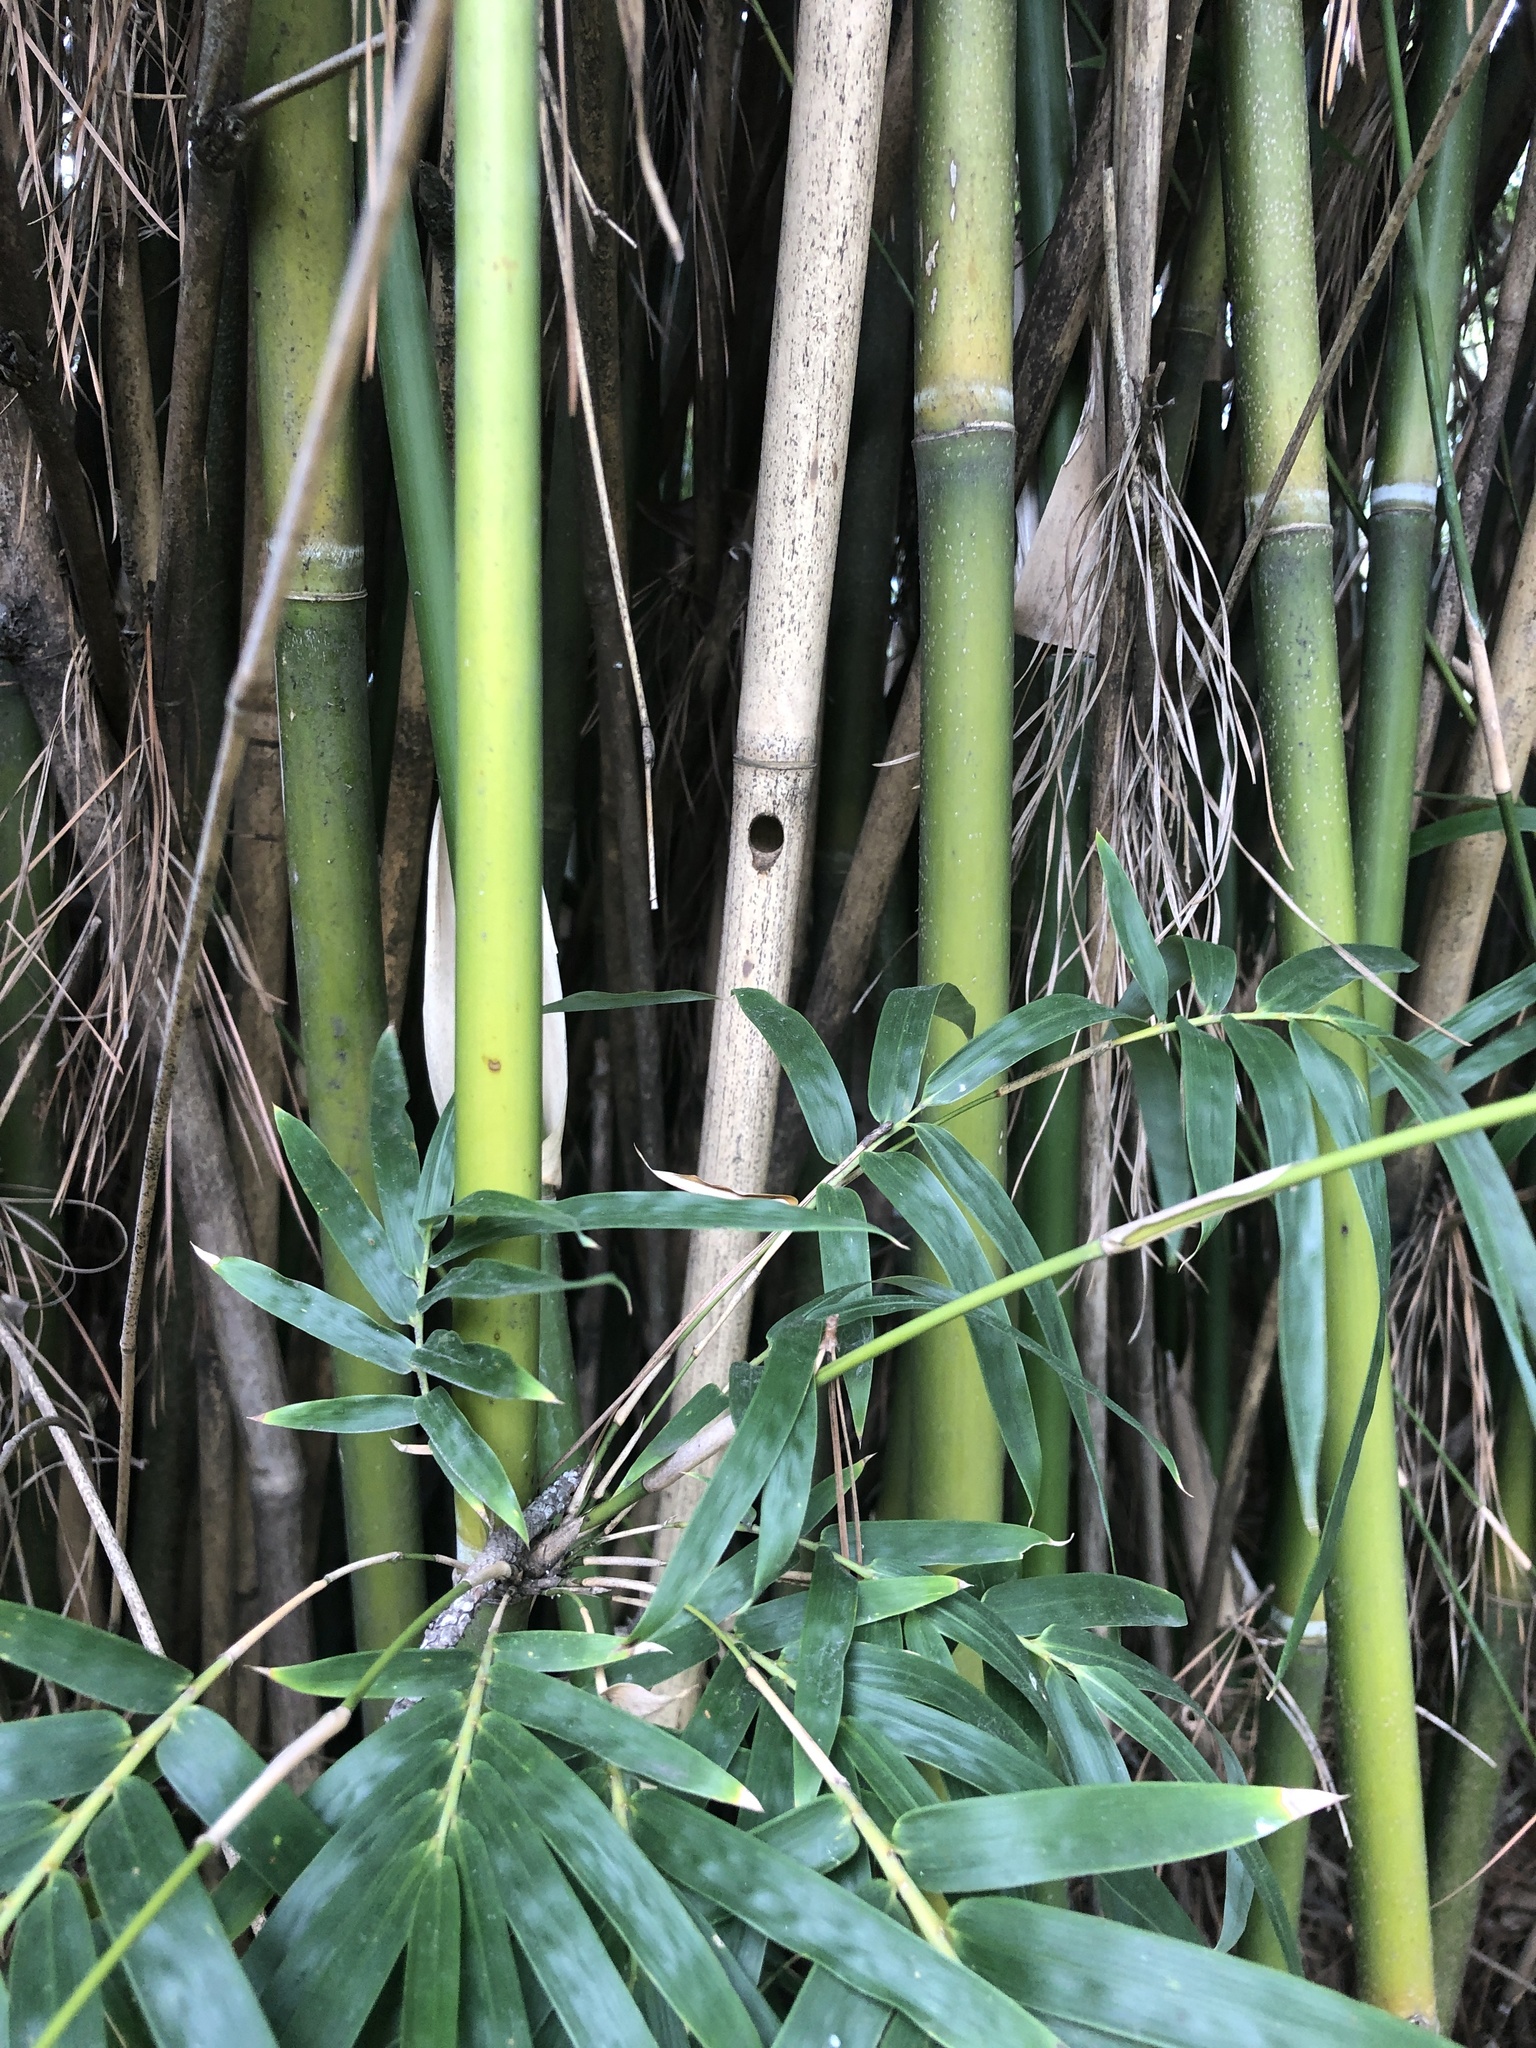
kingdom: Animalia
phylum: Arthropoda
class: Insecta
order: Hymenoptera
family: Apidae
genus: Xylocopa
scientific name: Xylocopa strandi
